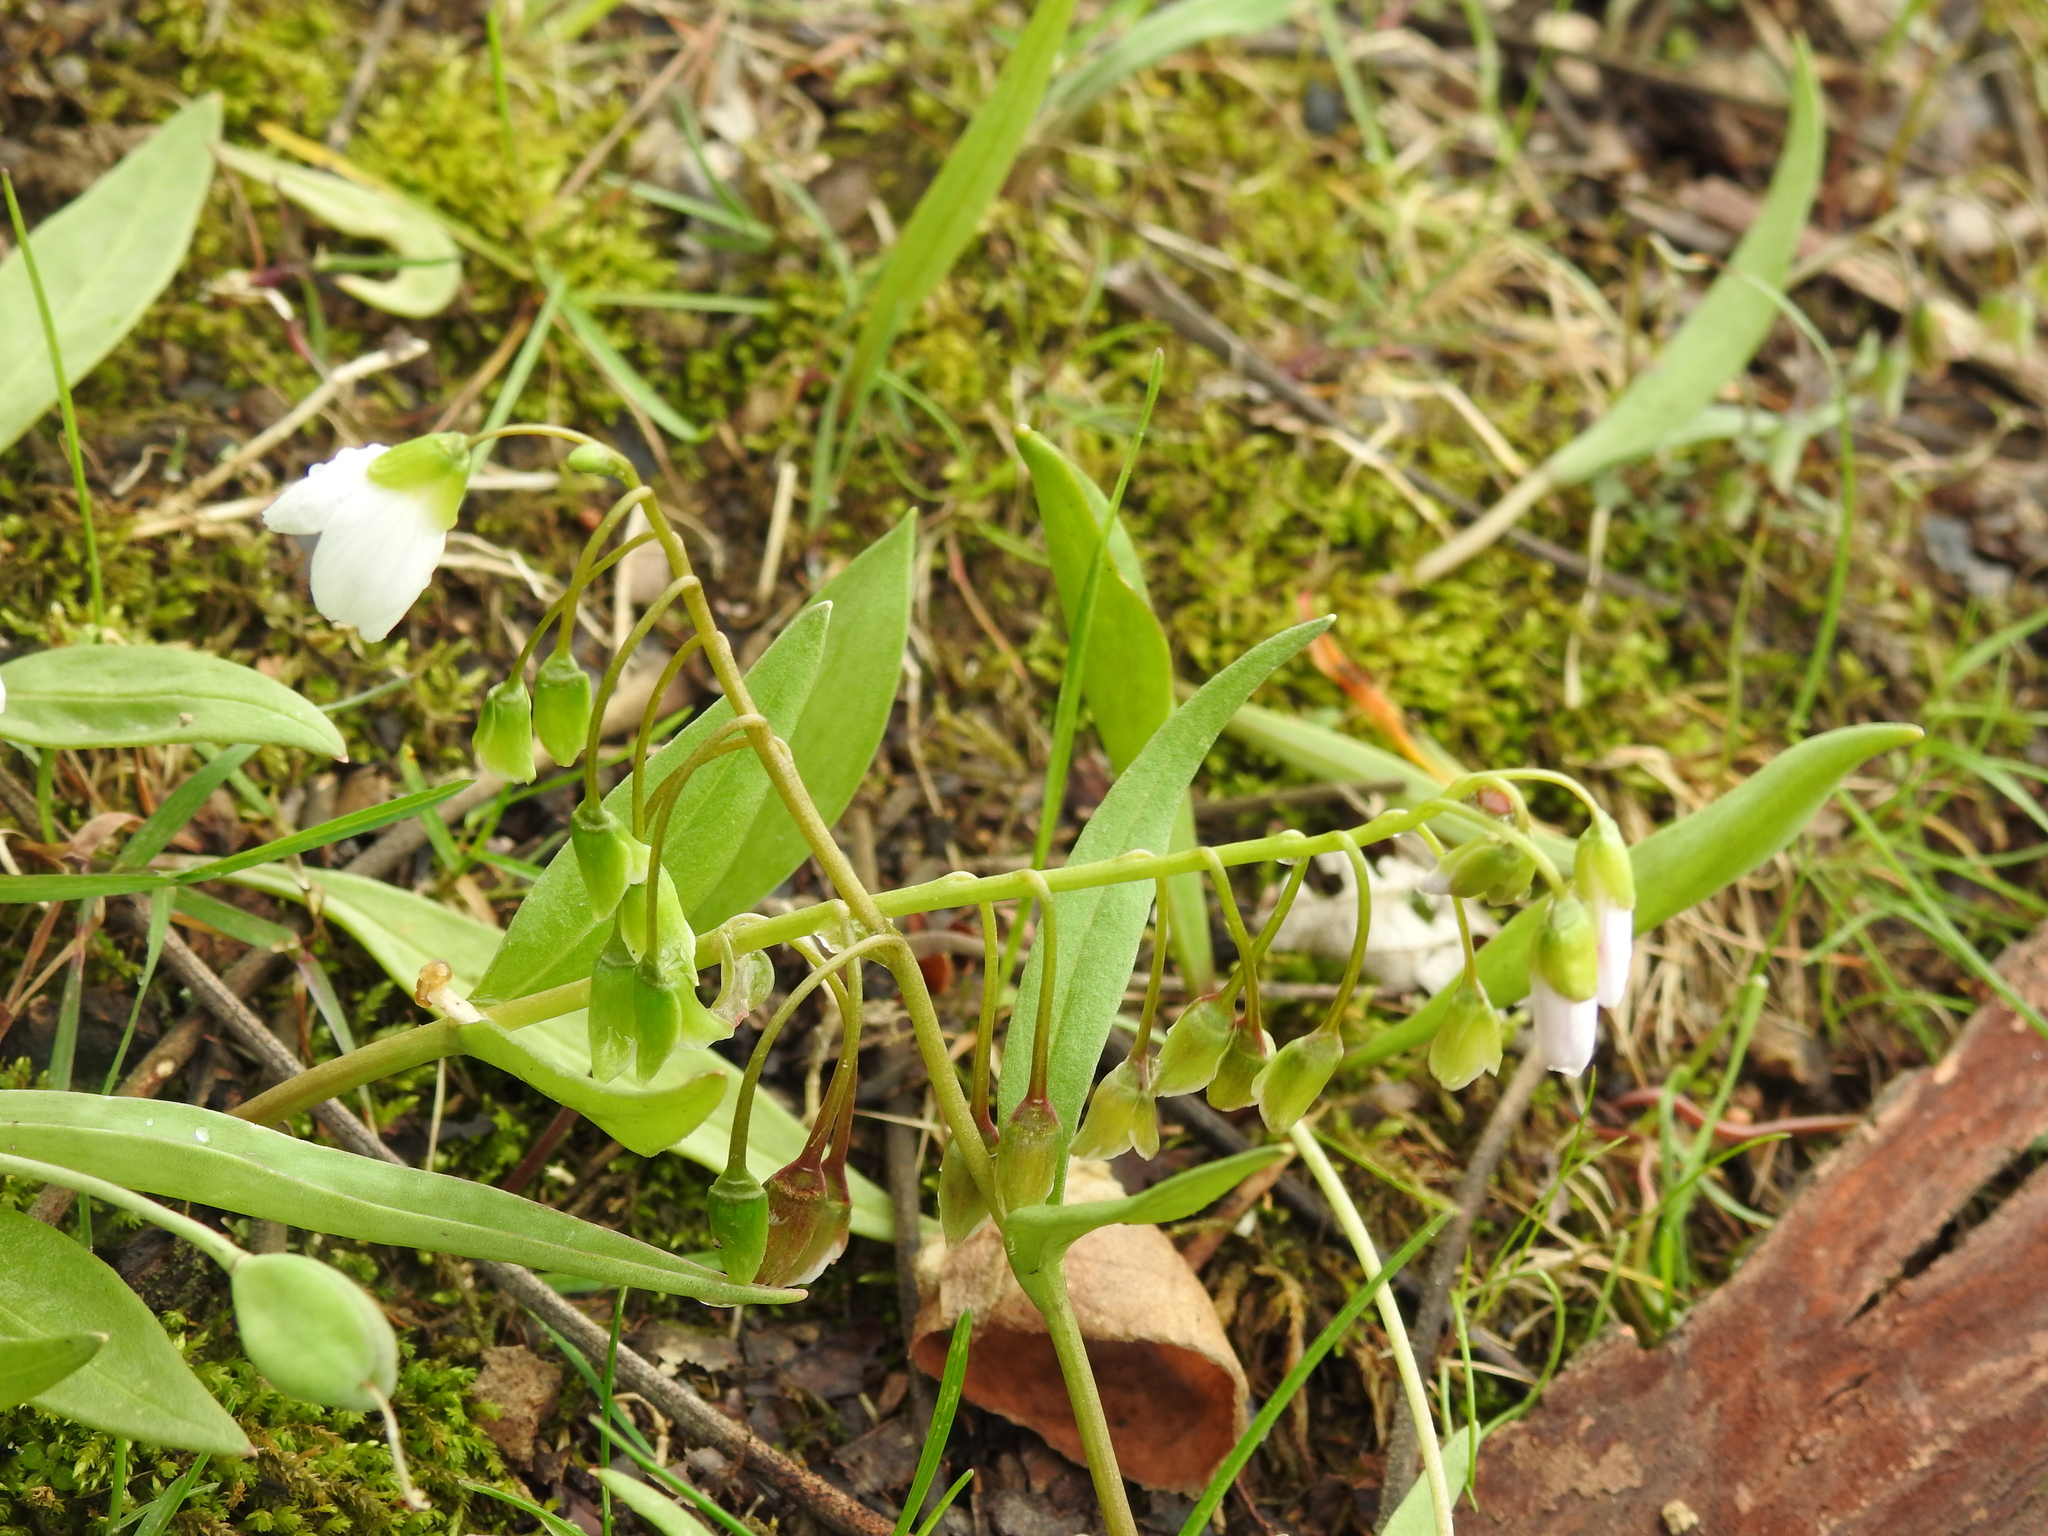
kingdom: Plantae
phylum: Tracheophyta
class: Magnoliopsida
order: Caryophyllales
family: Montiaceae
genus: Claytonia
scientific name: Claytonia virginica
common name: Virginia springbeauty
